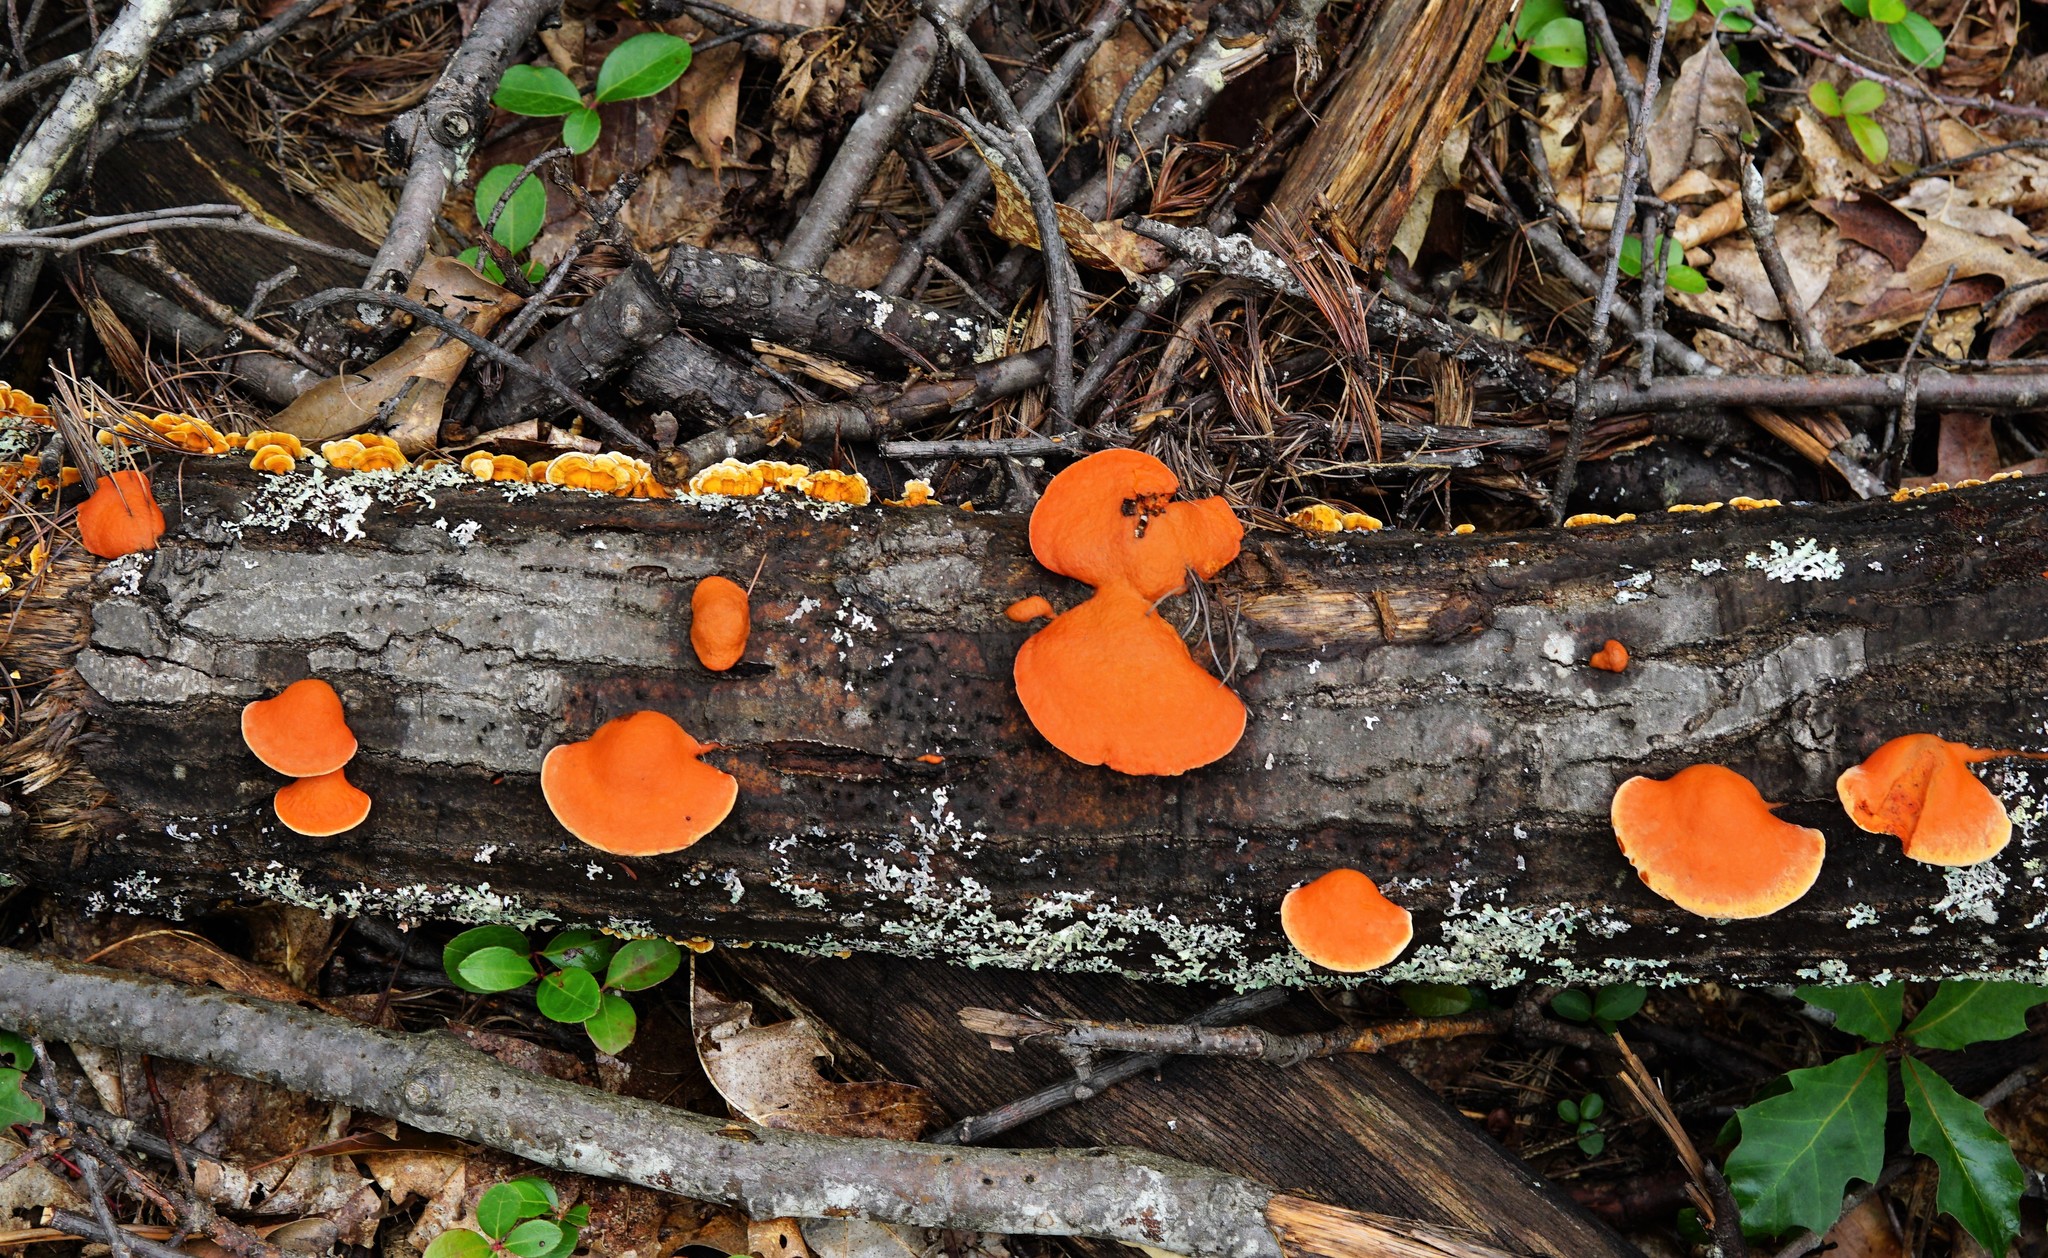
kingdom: Fungi
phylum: Basidiomycota
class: Agaricomycetes
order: Polyporales
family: Polyporaceae
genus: Trametes
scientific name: Trametes cinnabarina
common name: Northern cinnabar polypore
